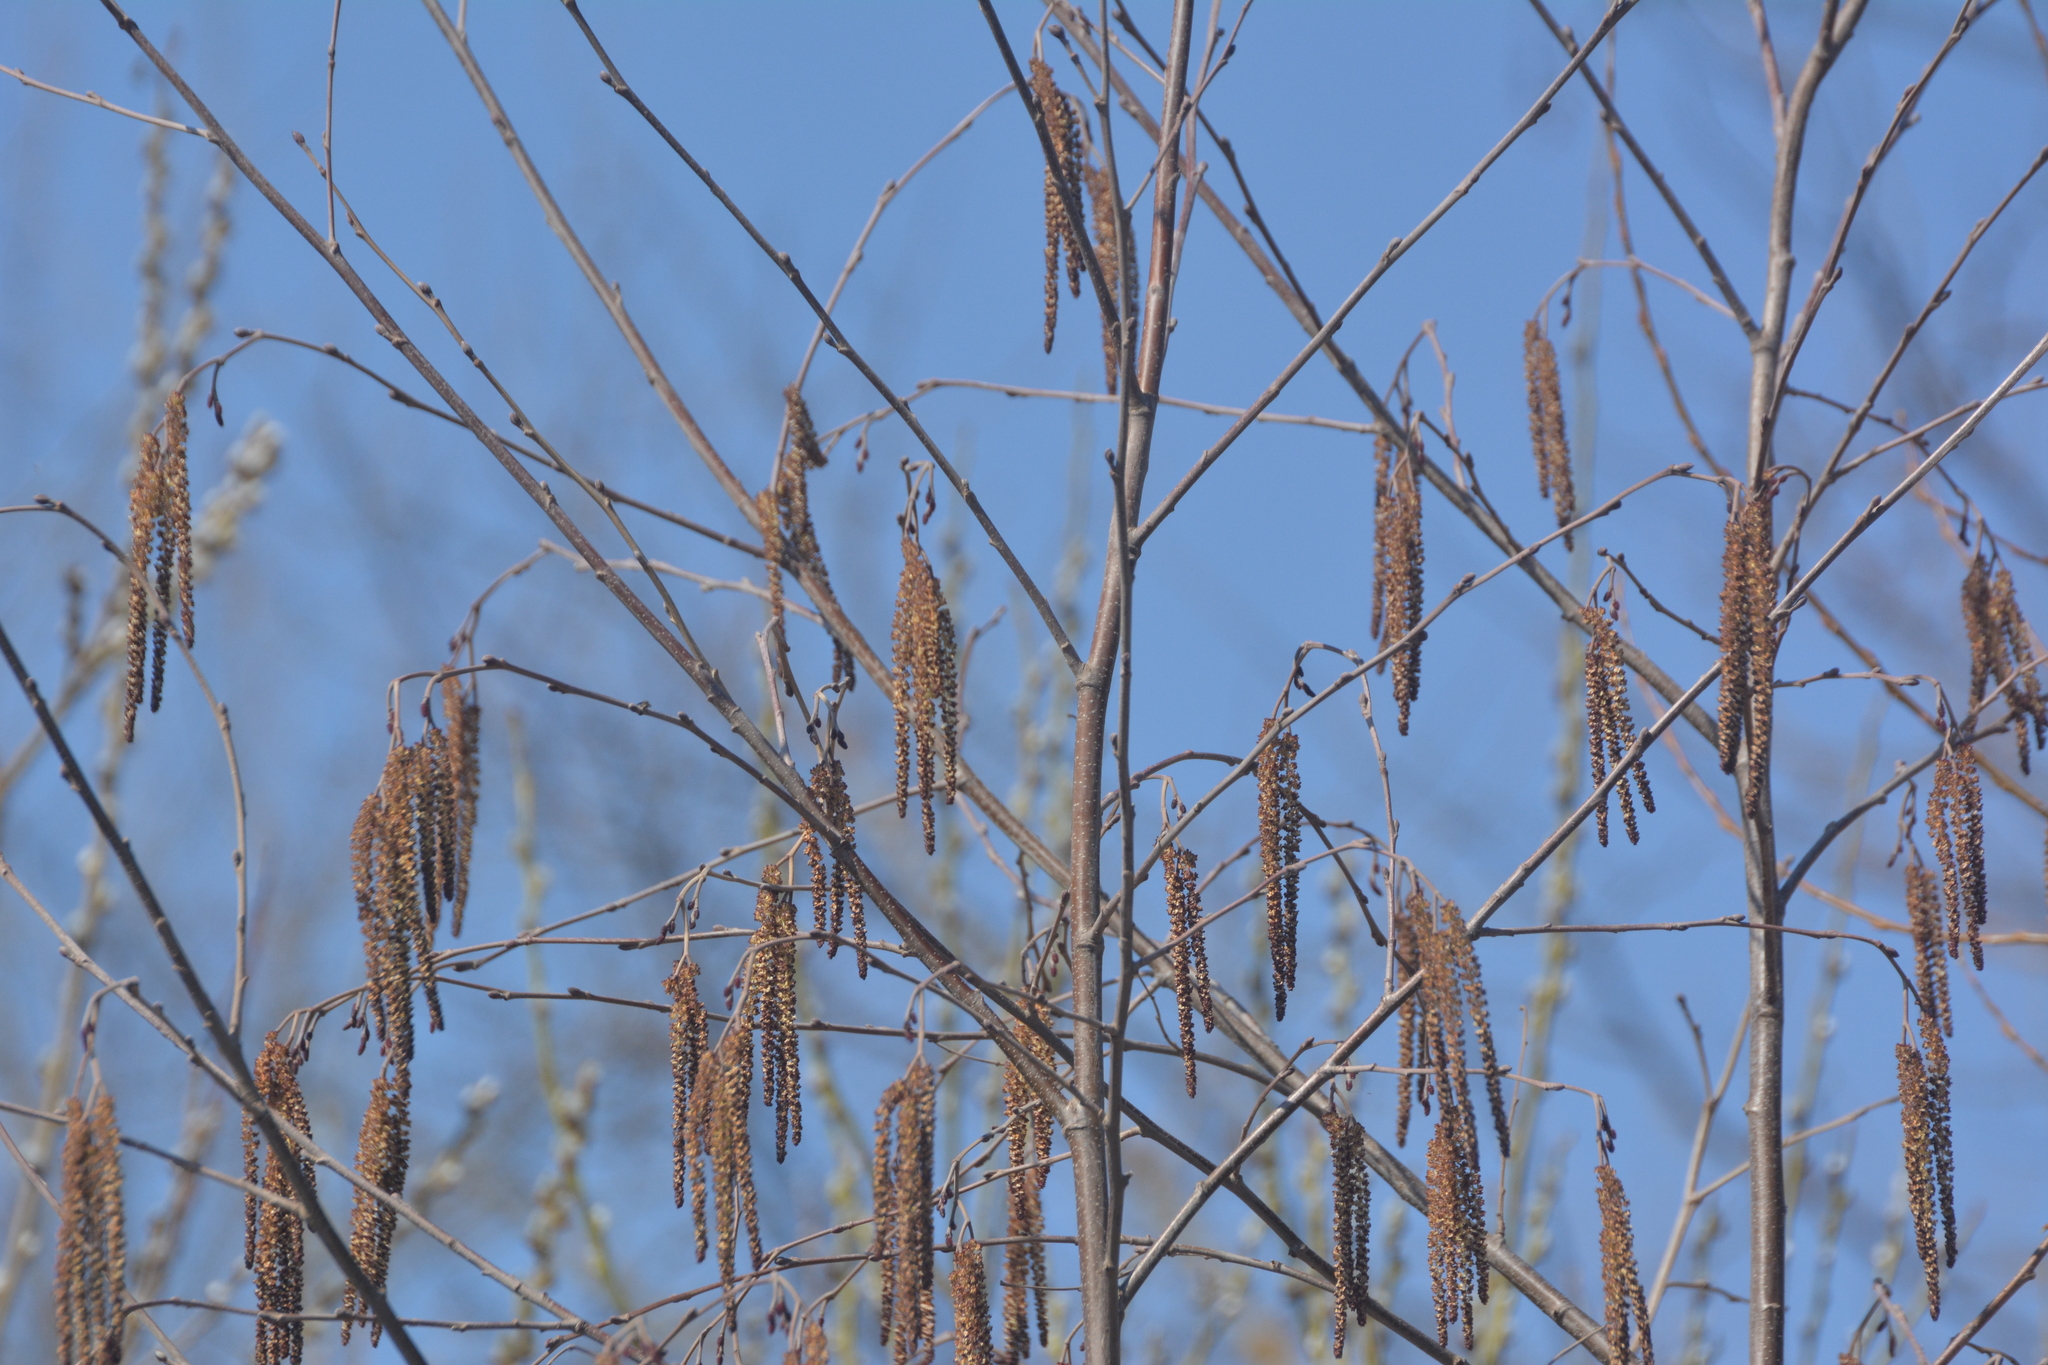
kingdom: Plantae
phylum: Tracheophyta
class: Magnoliopsida
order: Fagales
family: Betulaceae
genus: Alnus
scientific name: Alnus incana
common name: Grey alder
